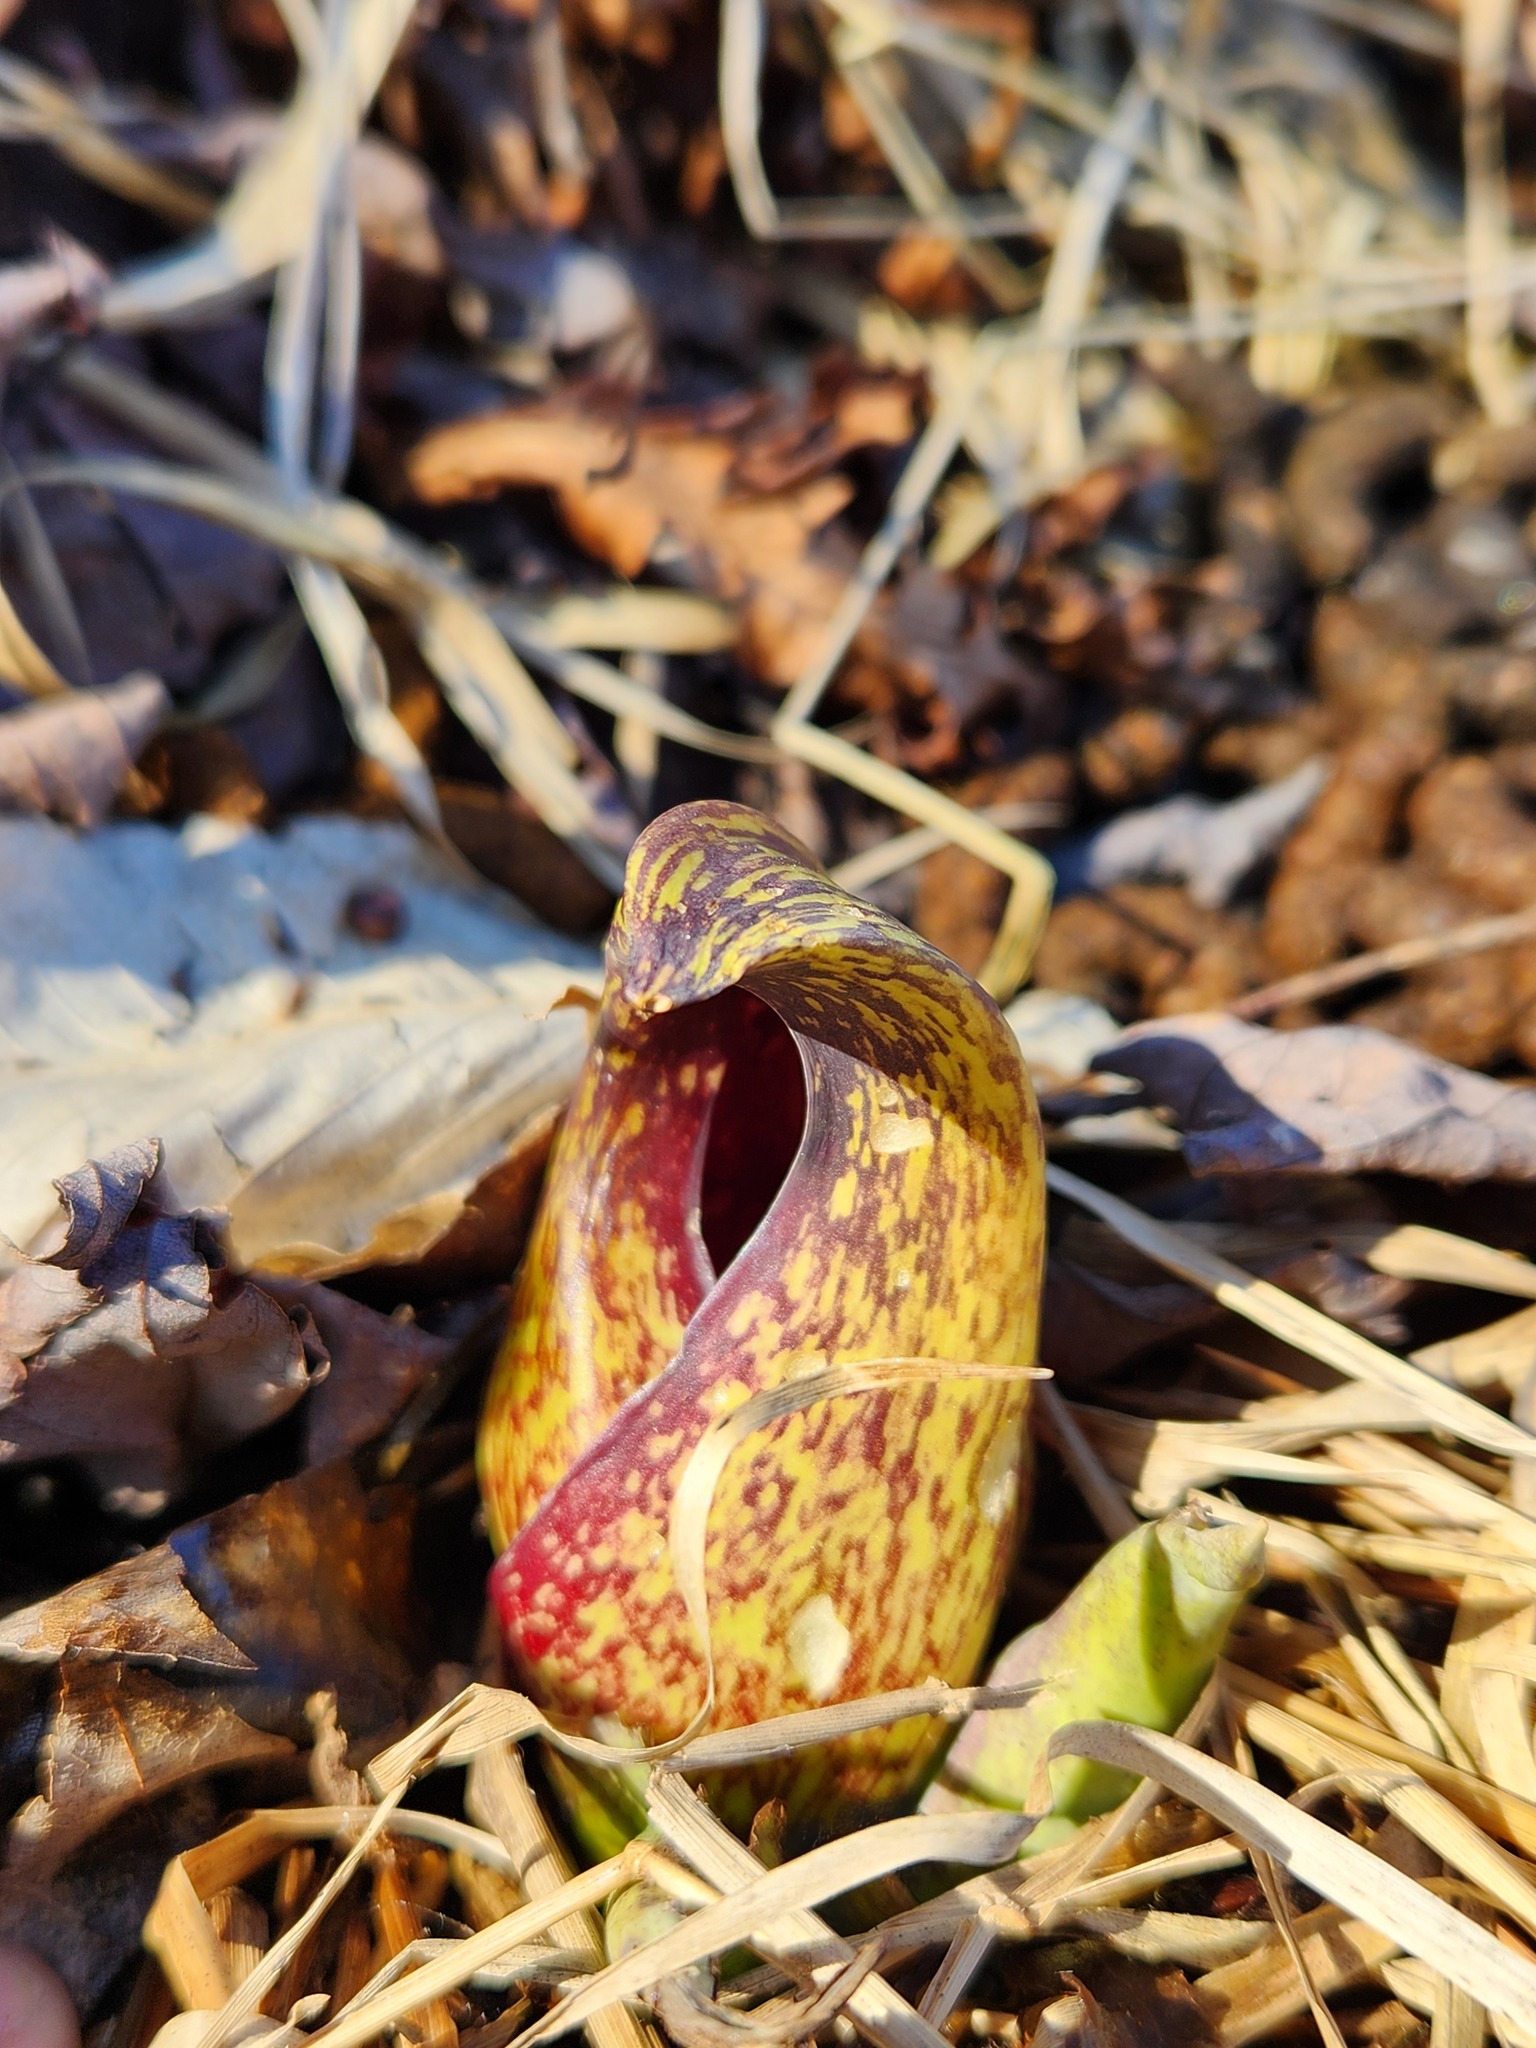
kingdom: Plantae
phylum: Tracheophyta
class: Liliopsida
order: Alismatales
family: Araceae
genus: Symplocarpus
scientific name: Symplocarpus foetidus
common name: Eastern skunk cabbage
